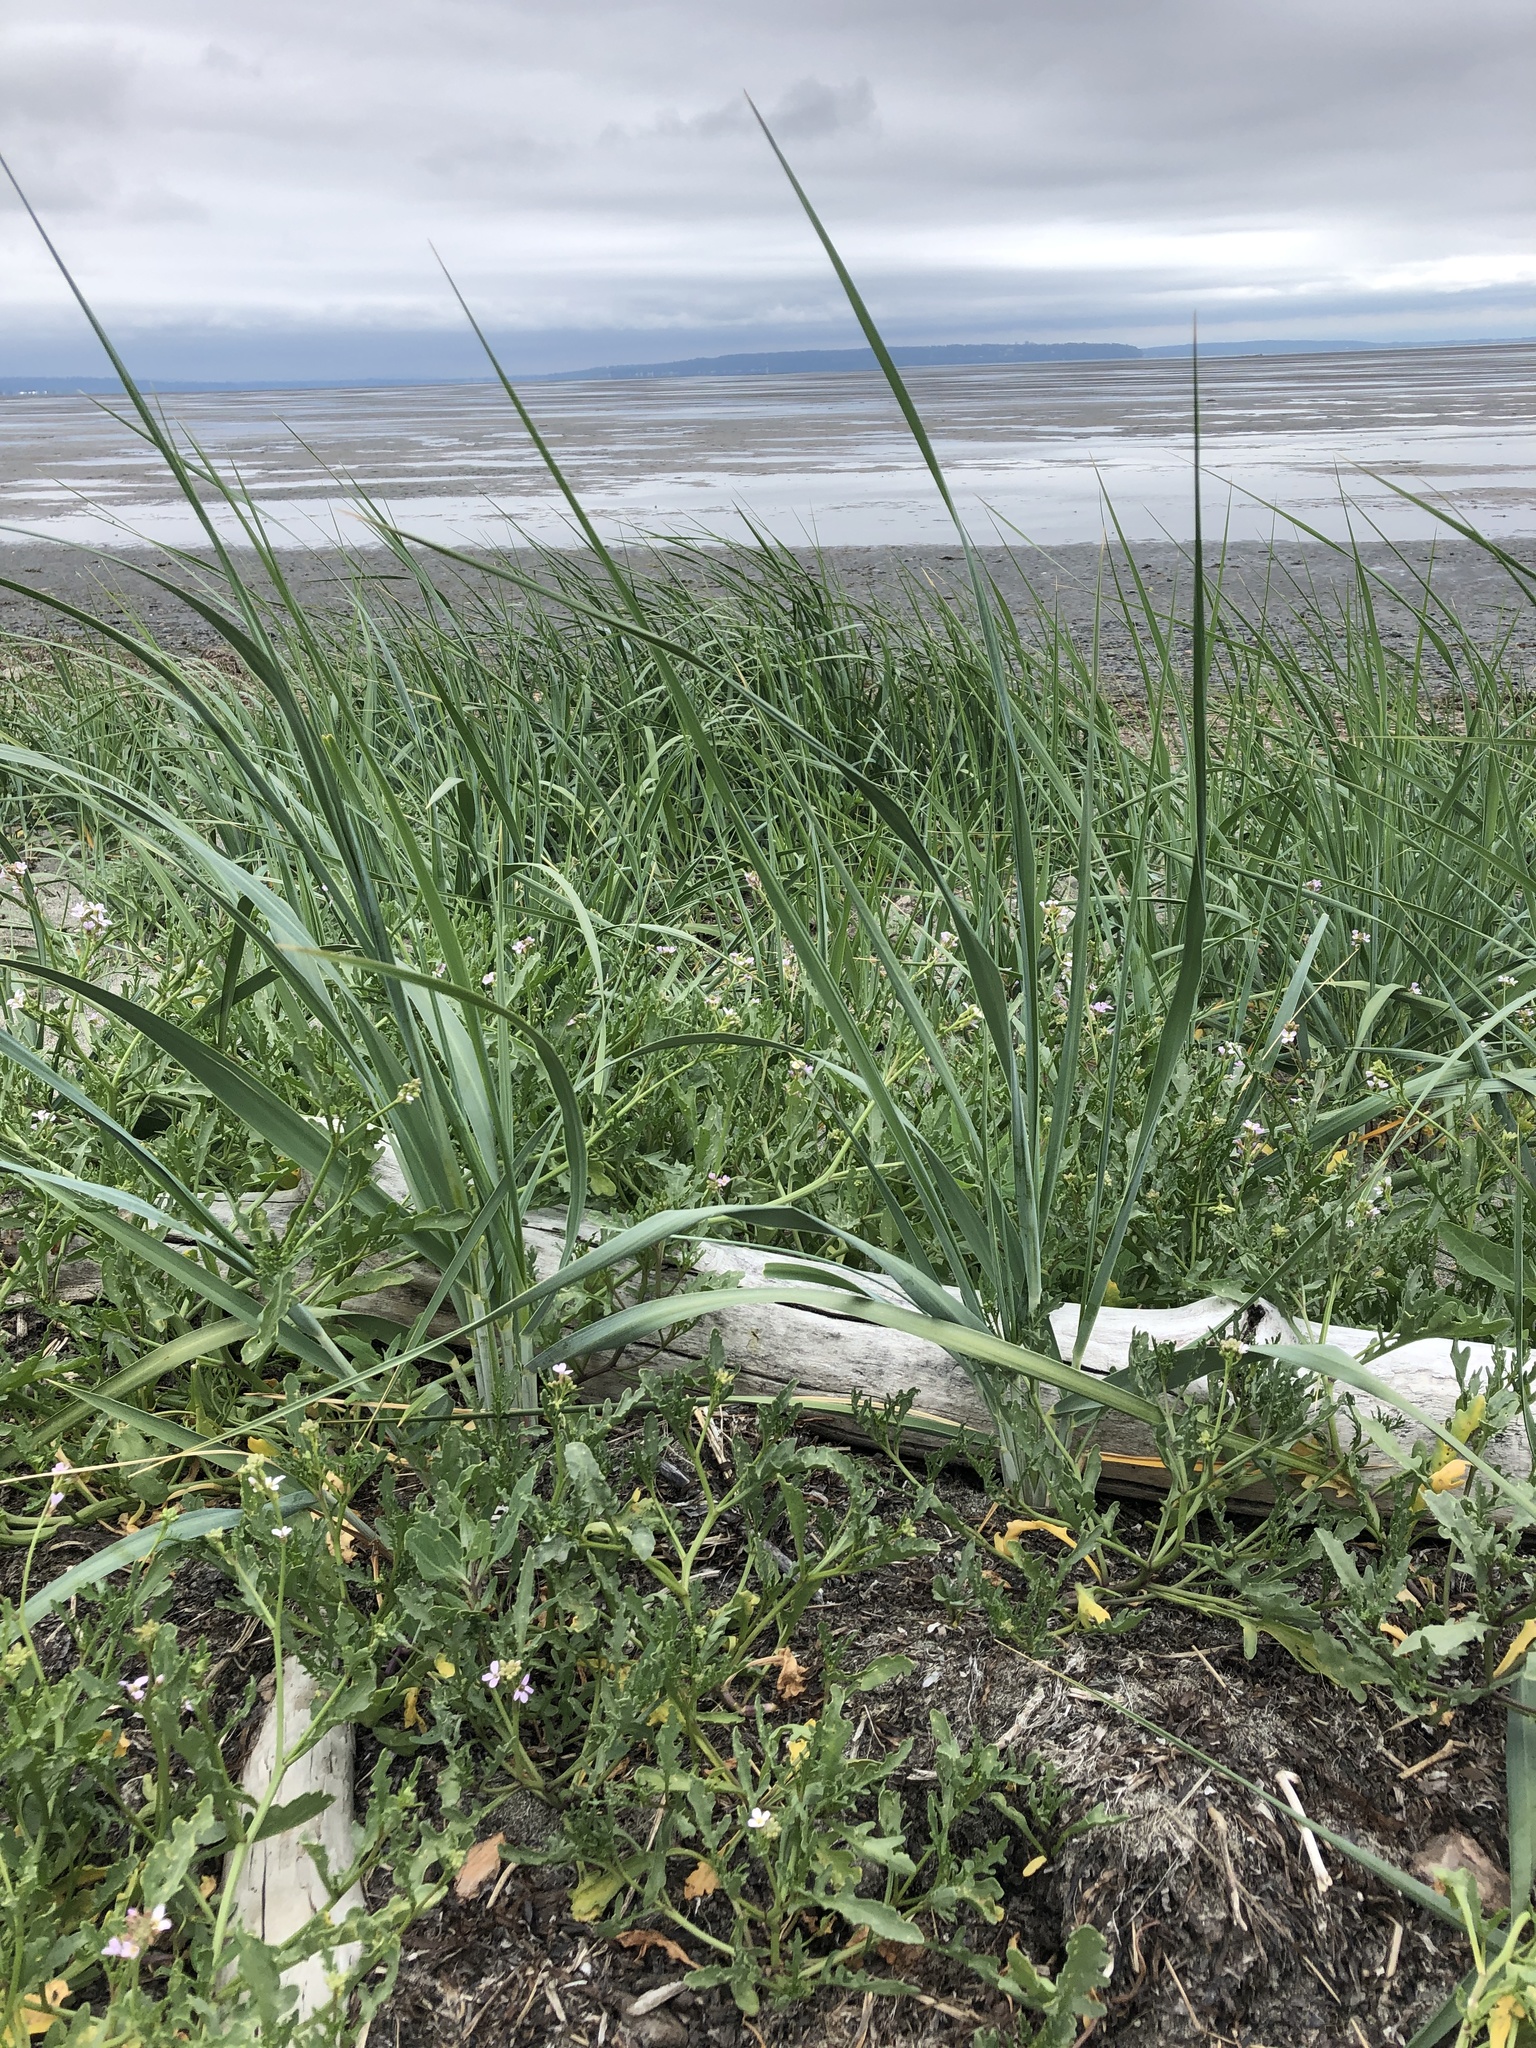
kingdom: Plantae
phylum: Tracheophyta
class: Liliopsida
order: Poales
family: Poaceae
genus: Leymus
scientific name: Leymus mollis
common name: American dune grass
